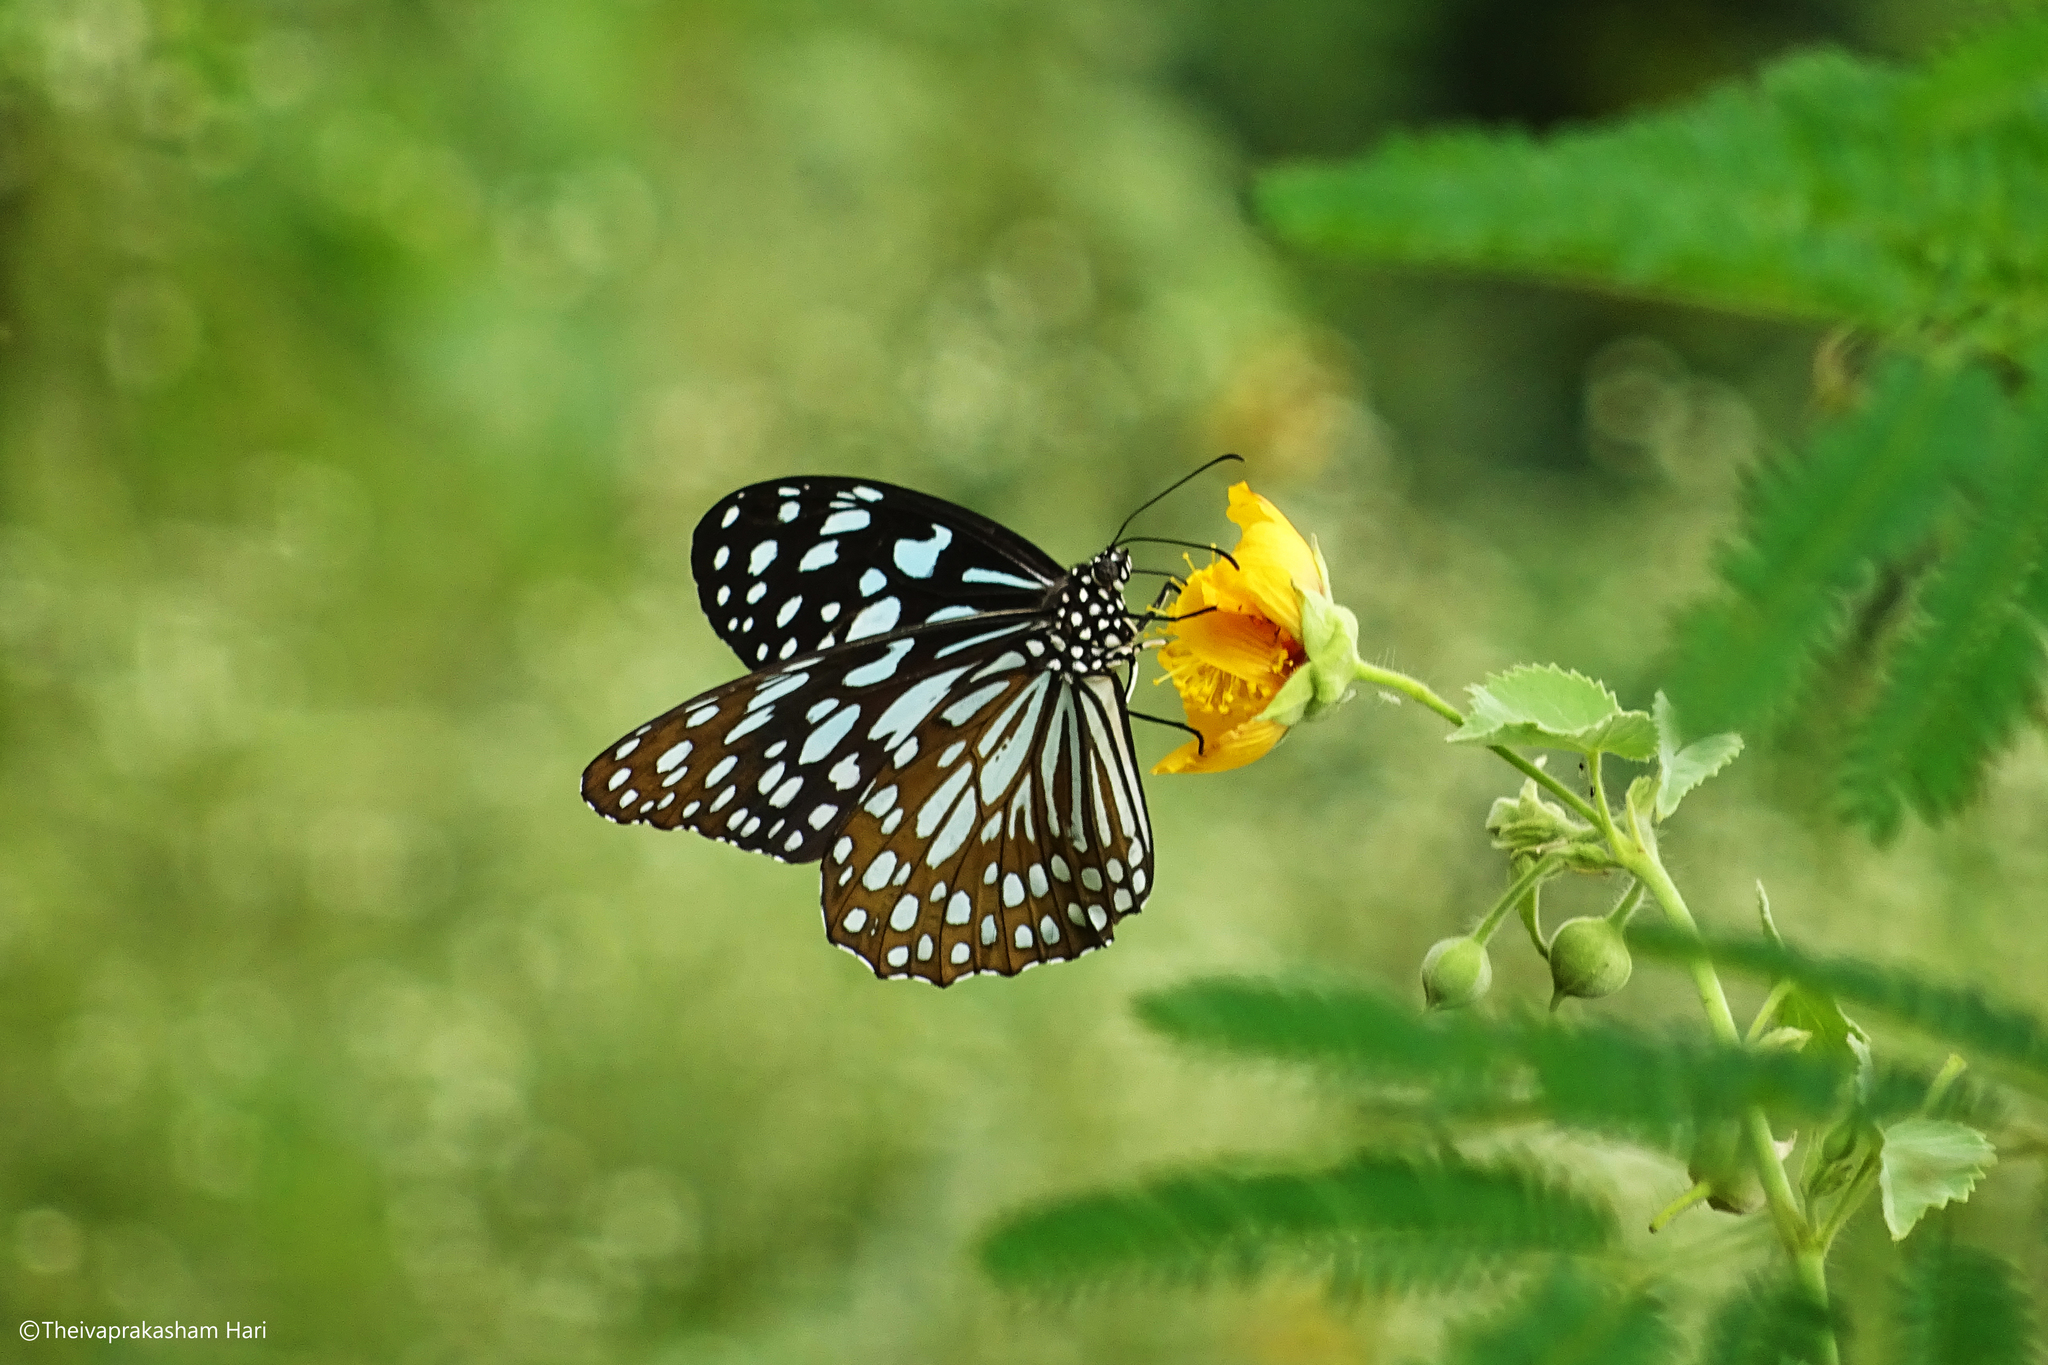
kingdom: Animalia
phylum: Arthropoda
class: Insecta
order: Lepidoptera
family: Nymphalidae
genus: Tirumala
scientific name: Tirumala limniace
